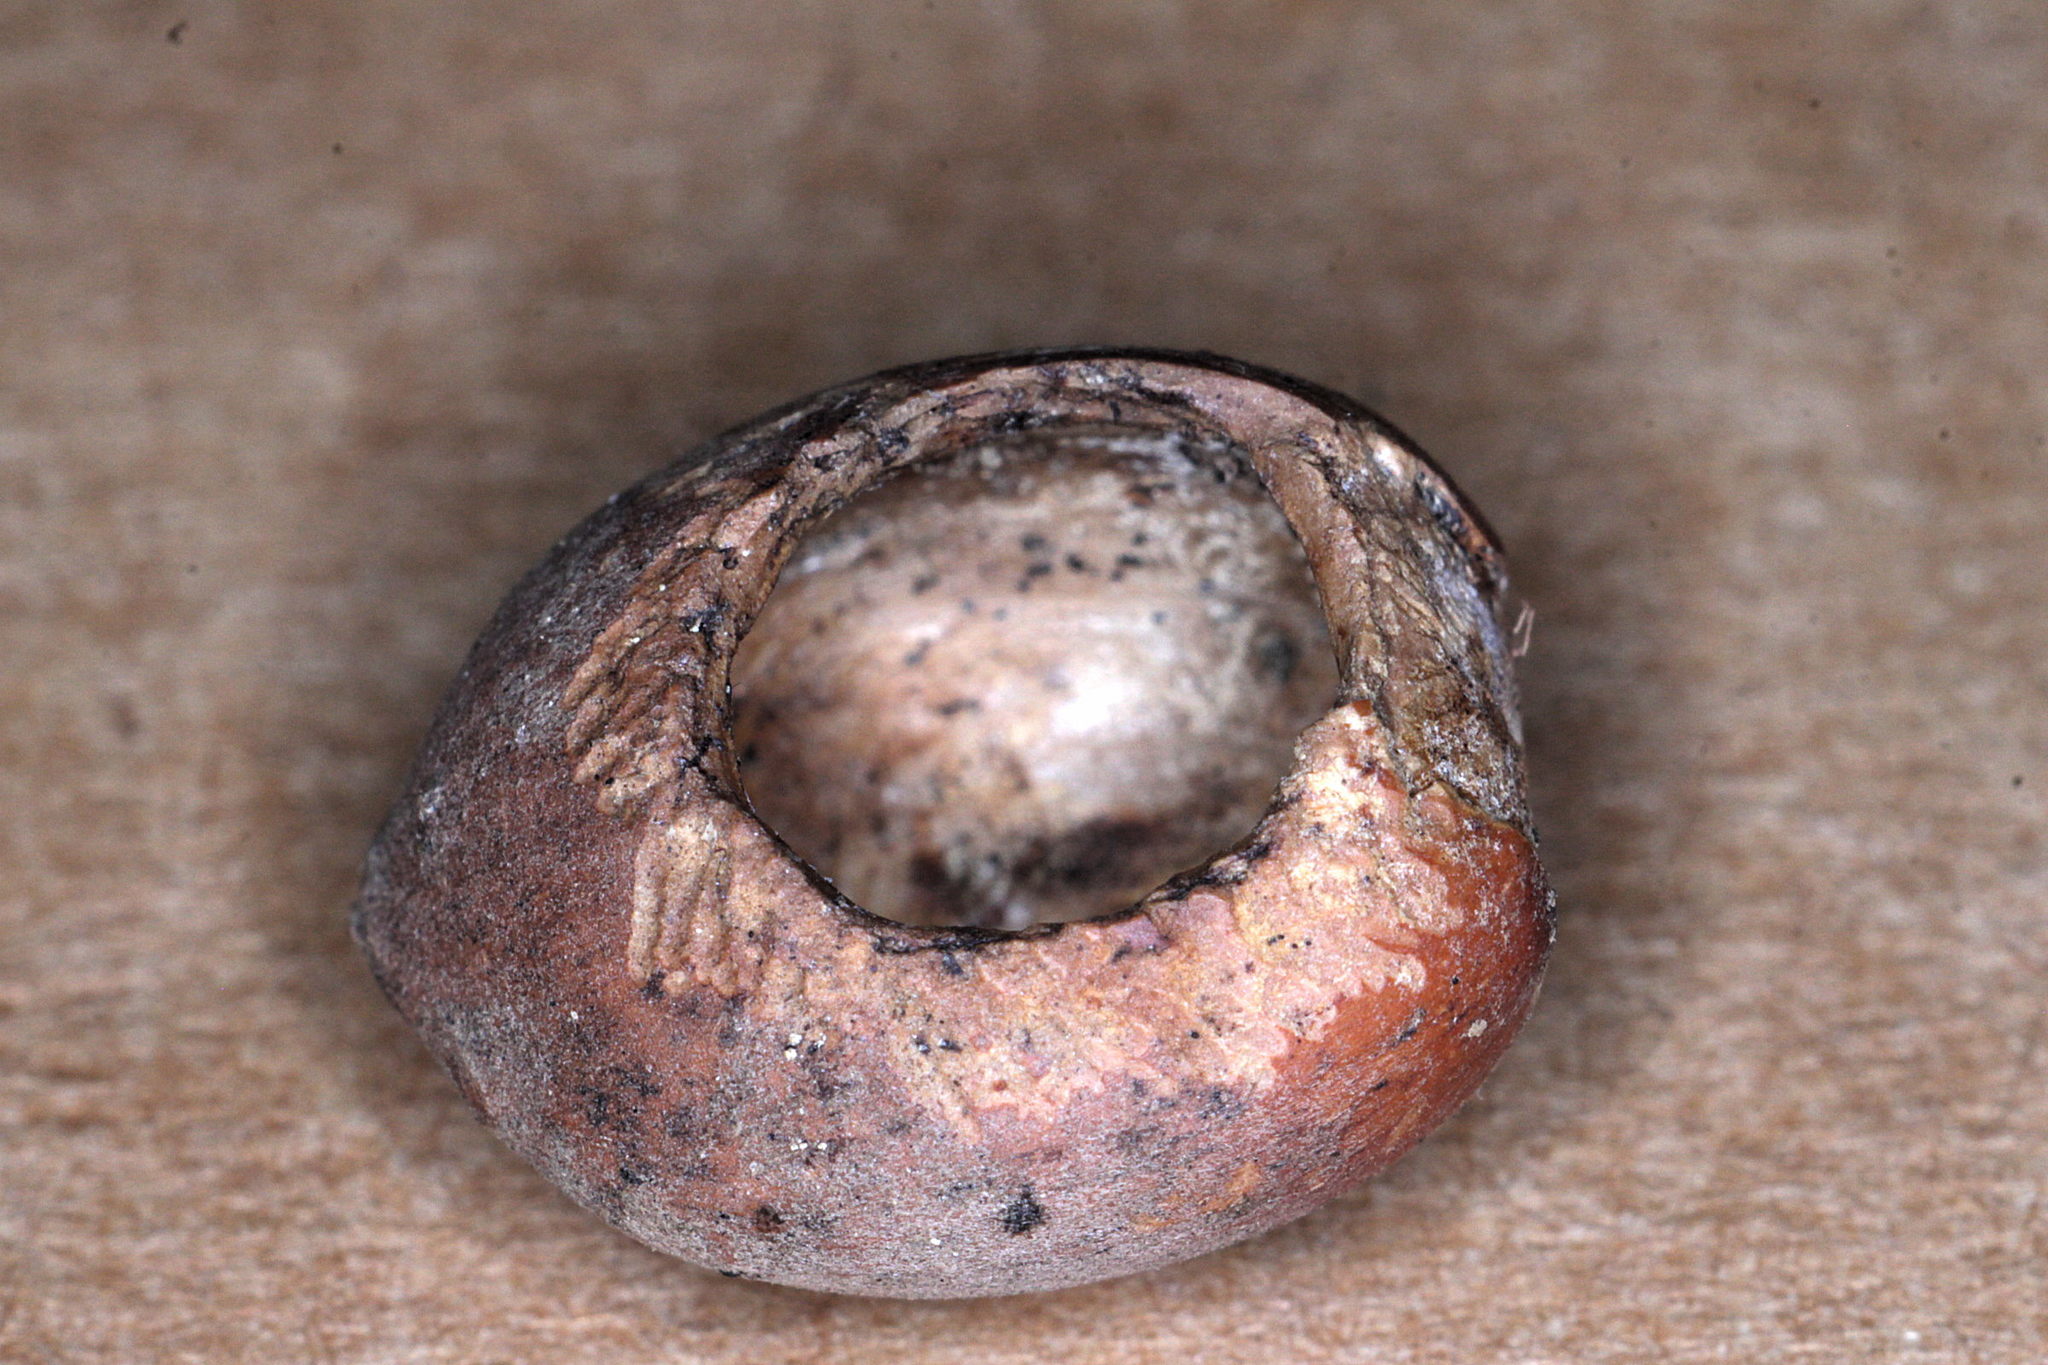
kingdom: Animalia
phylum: Chordata
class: Mammalia
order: Rodentia
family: Gliridae
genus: Muscardinus
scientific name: Muscardinus avellanarius
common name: Hazel dormouse
